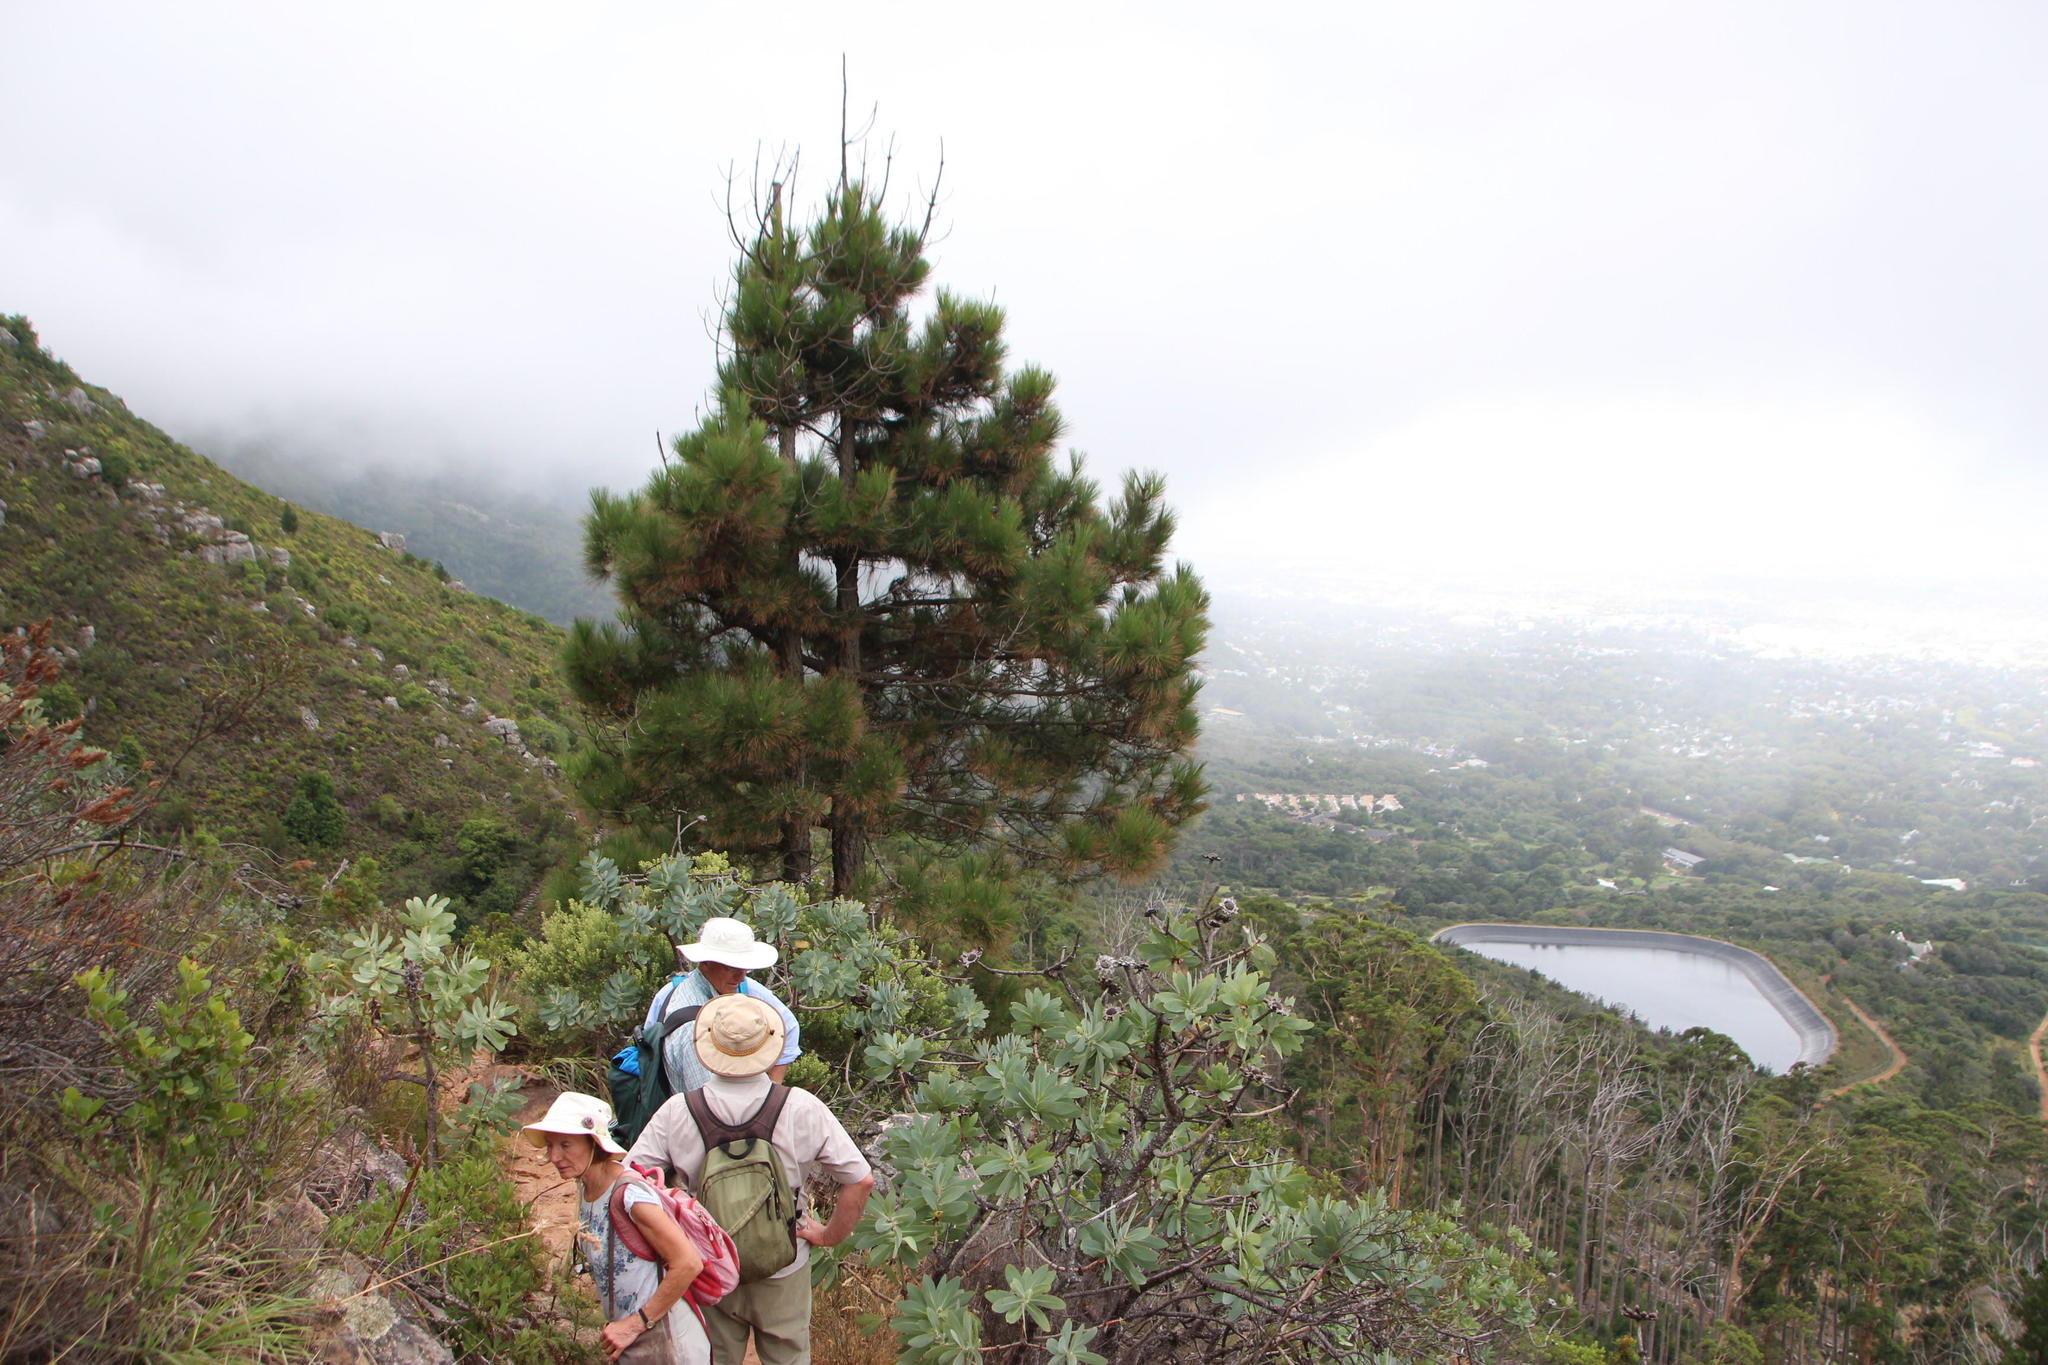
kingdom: Plantae
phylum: Tracheophyta
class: Pinopsida
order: Pinales
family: Pinaceae
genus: Pinus
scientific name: Pinus canariensis
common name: Canary islands pine
